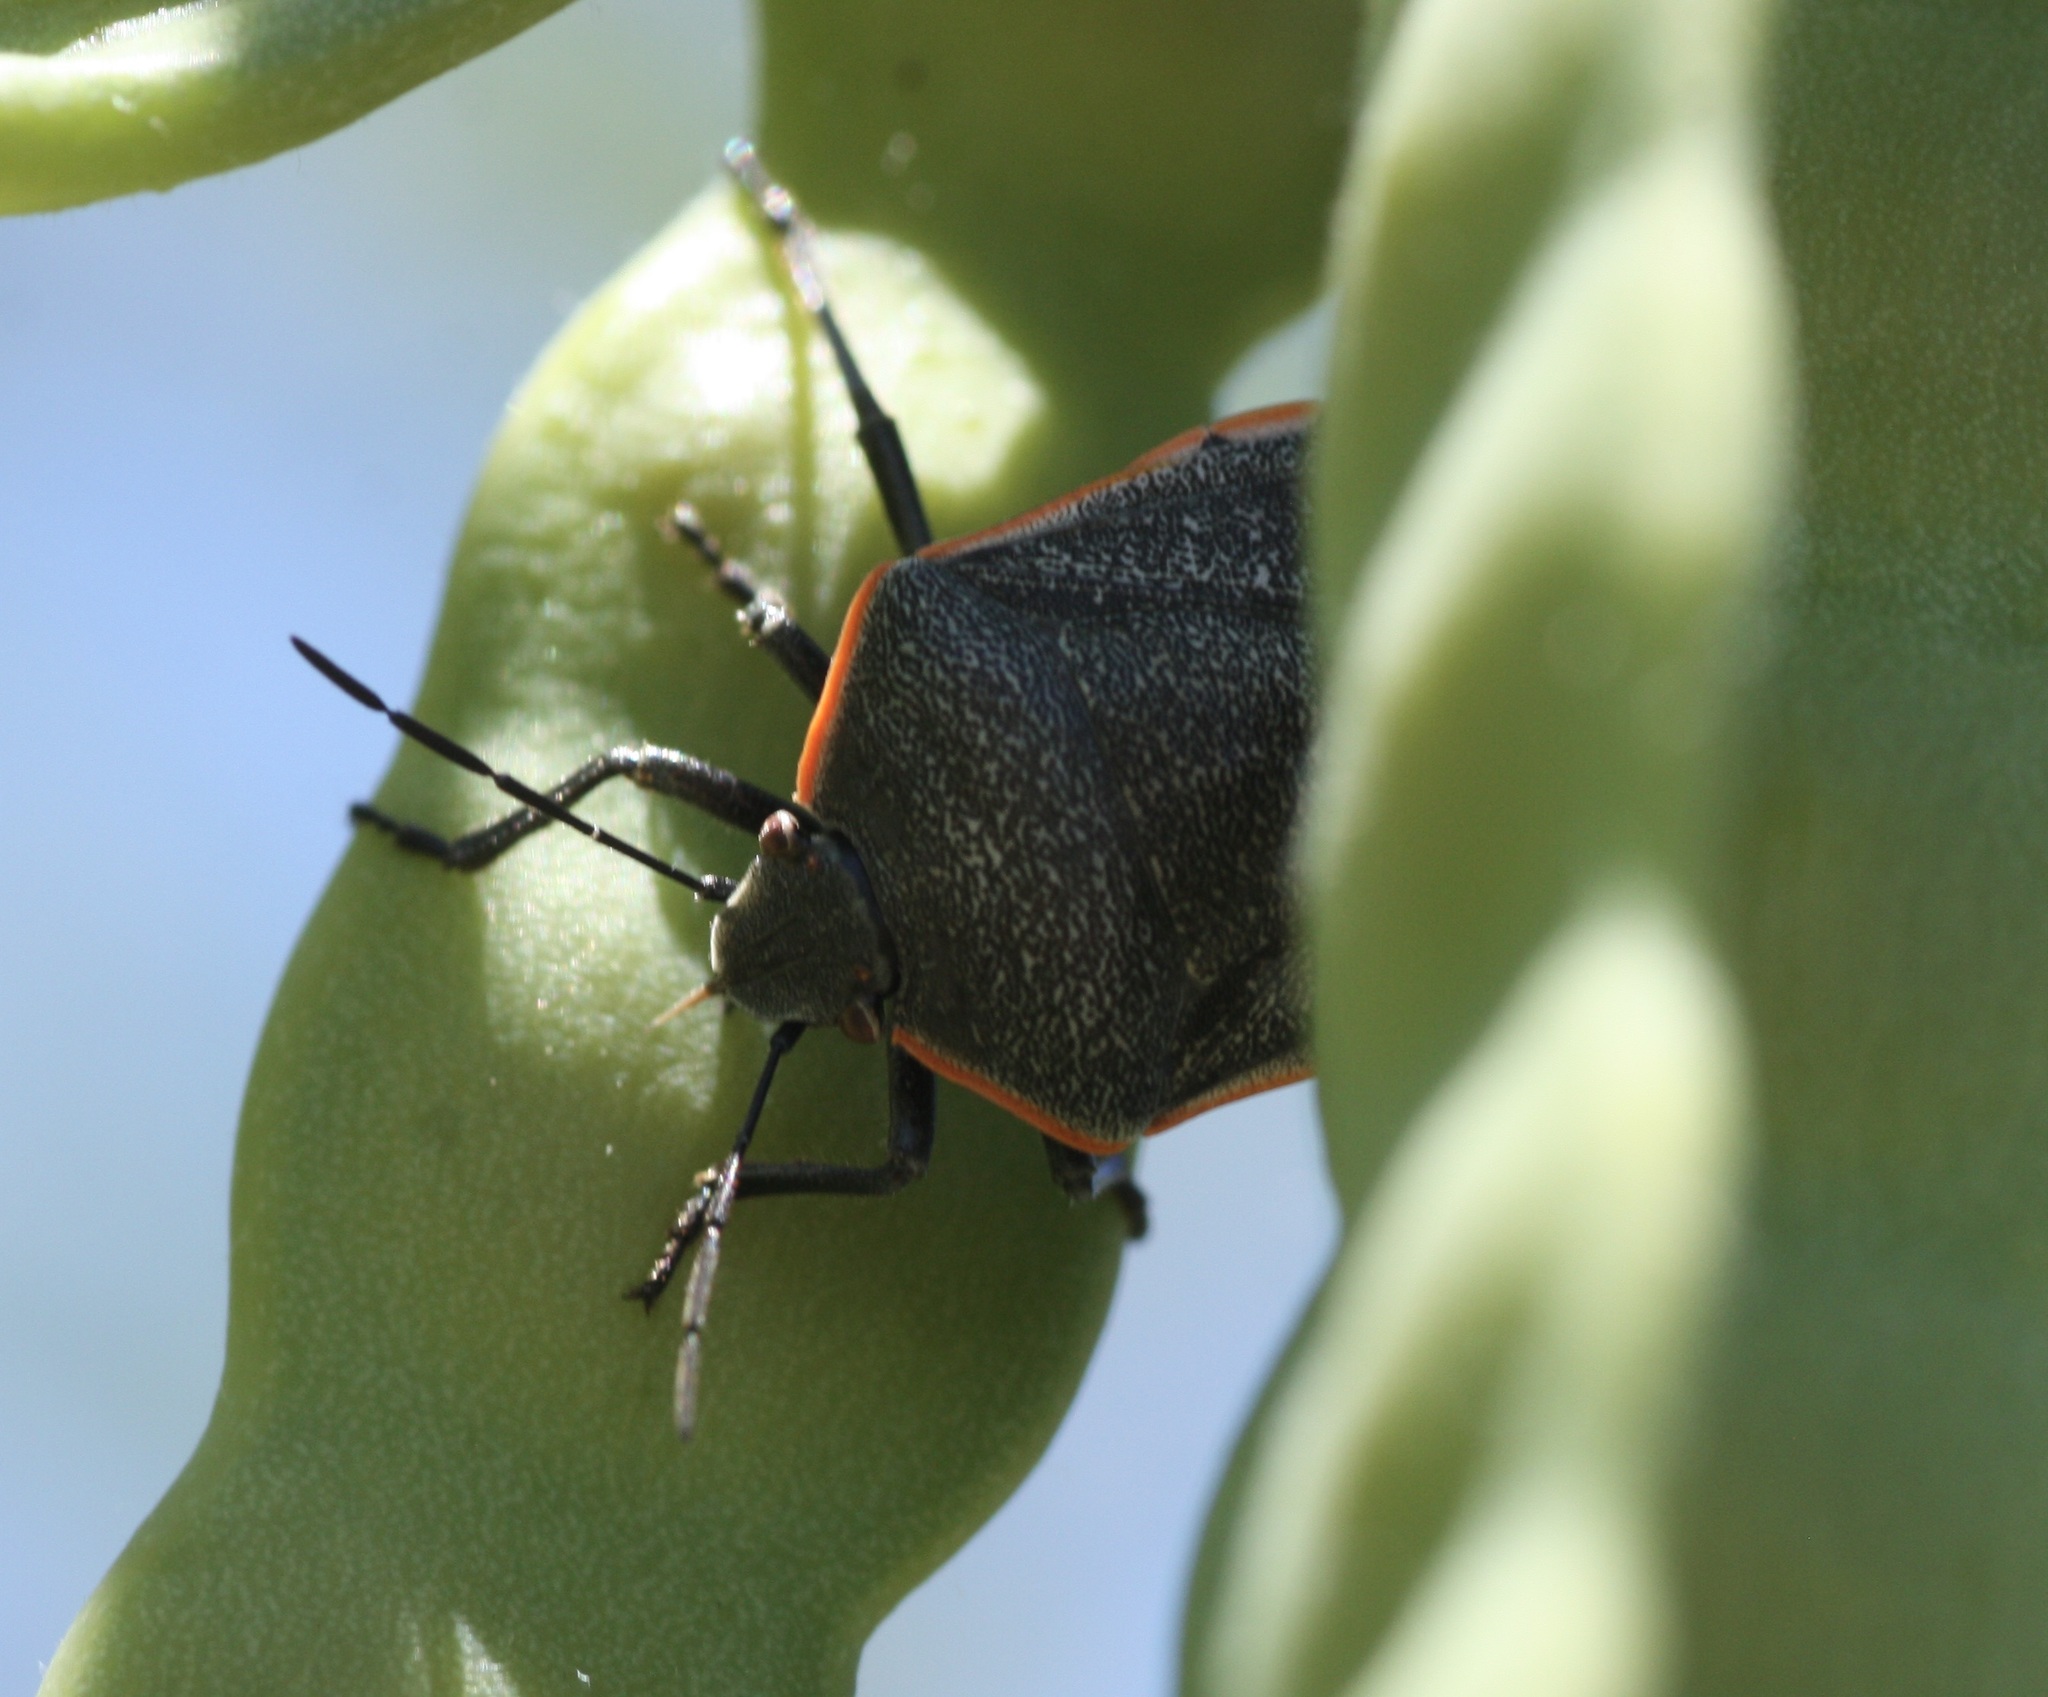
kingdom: Animalia
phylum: Arthropoda
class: Insecta
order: Hemiptera
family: Pentatomidae
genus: Chlorochroa
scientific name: Chlorochroa ligata
